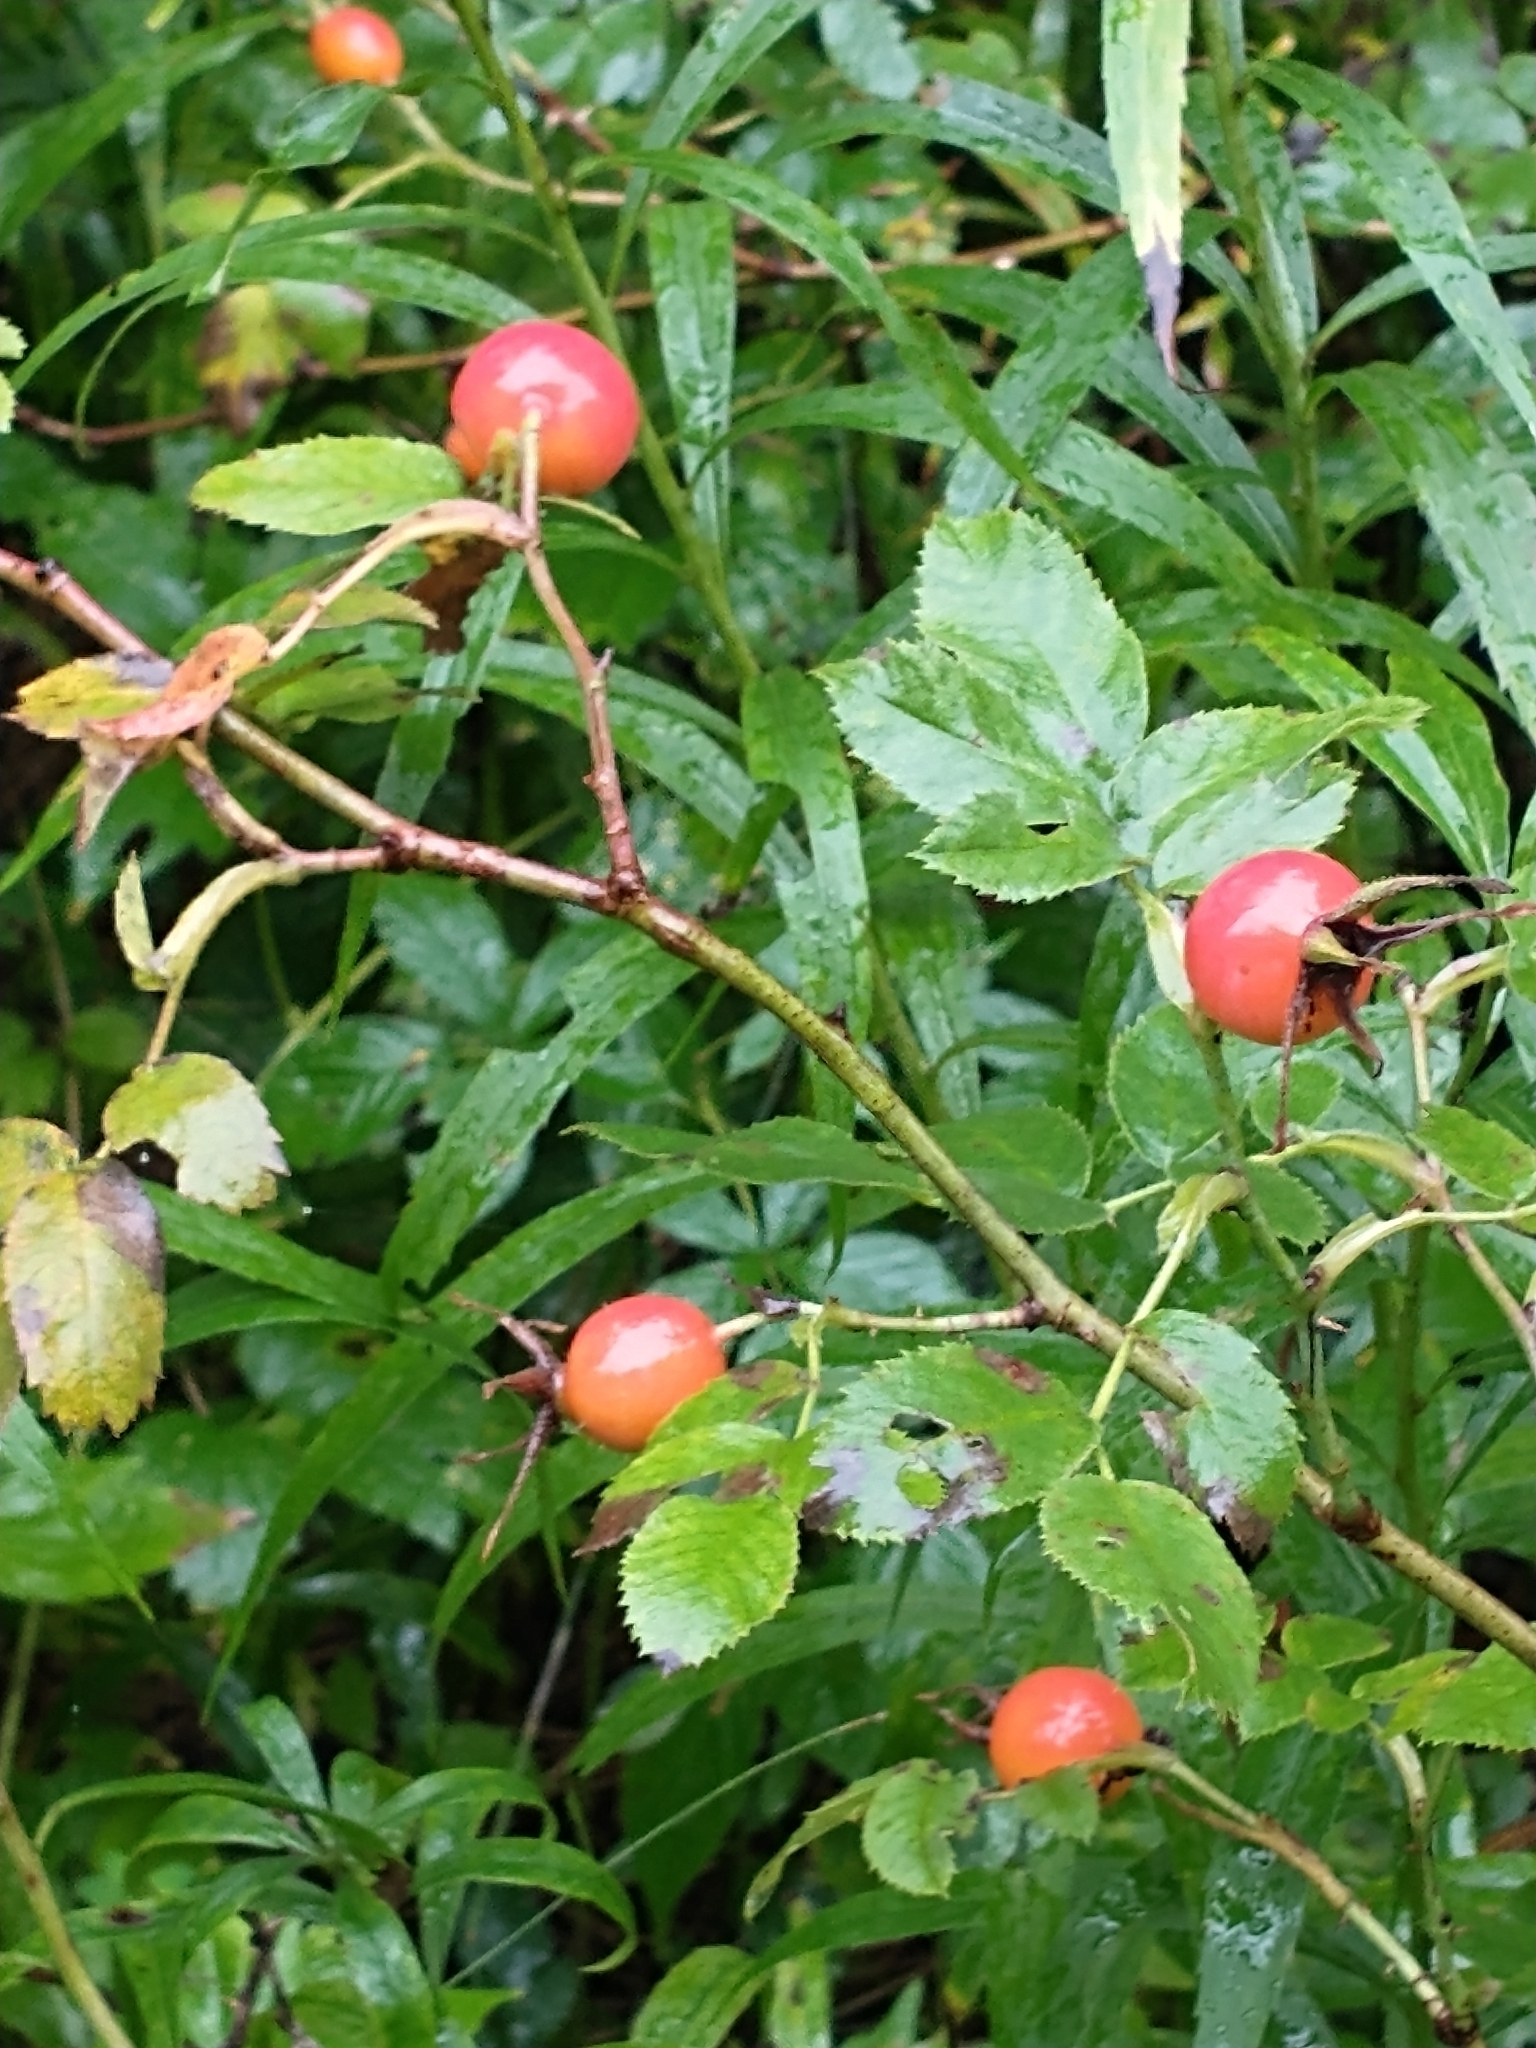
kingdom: Plantae
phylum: Tracheophyta
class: Magnoliopsida
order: Rosales
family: Rosaceae
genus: Rosa
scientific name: Rosa sherardii
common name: Sherard's downy rose
